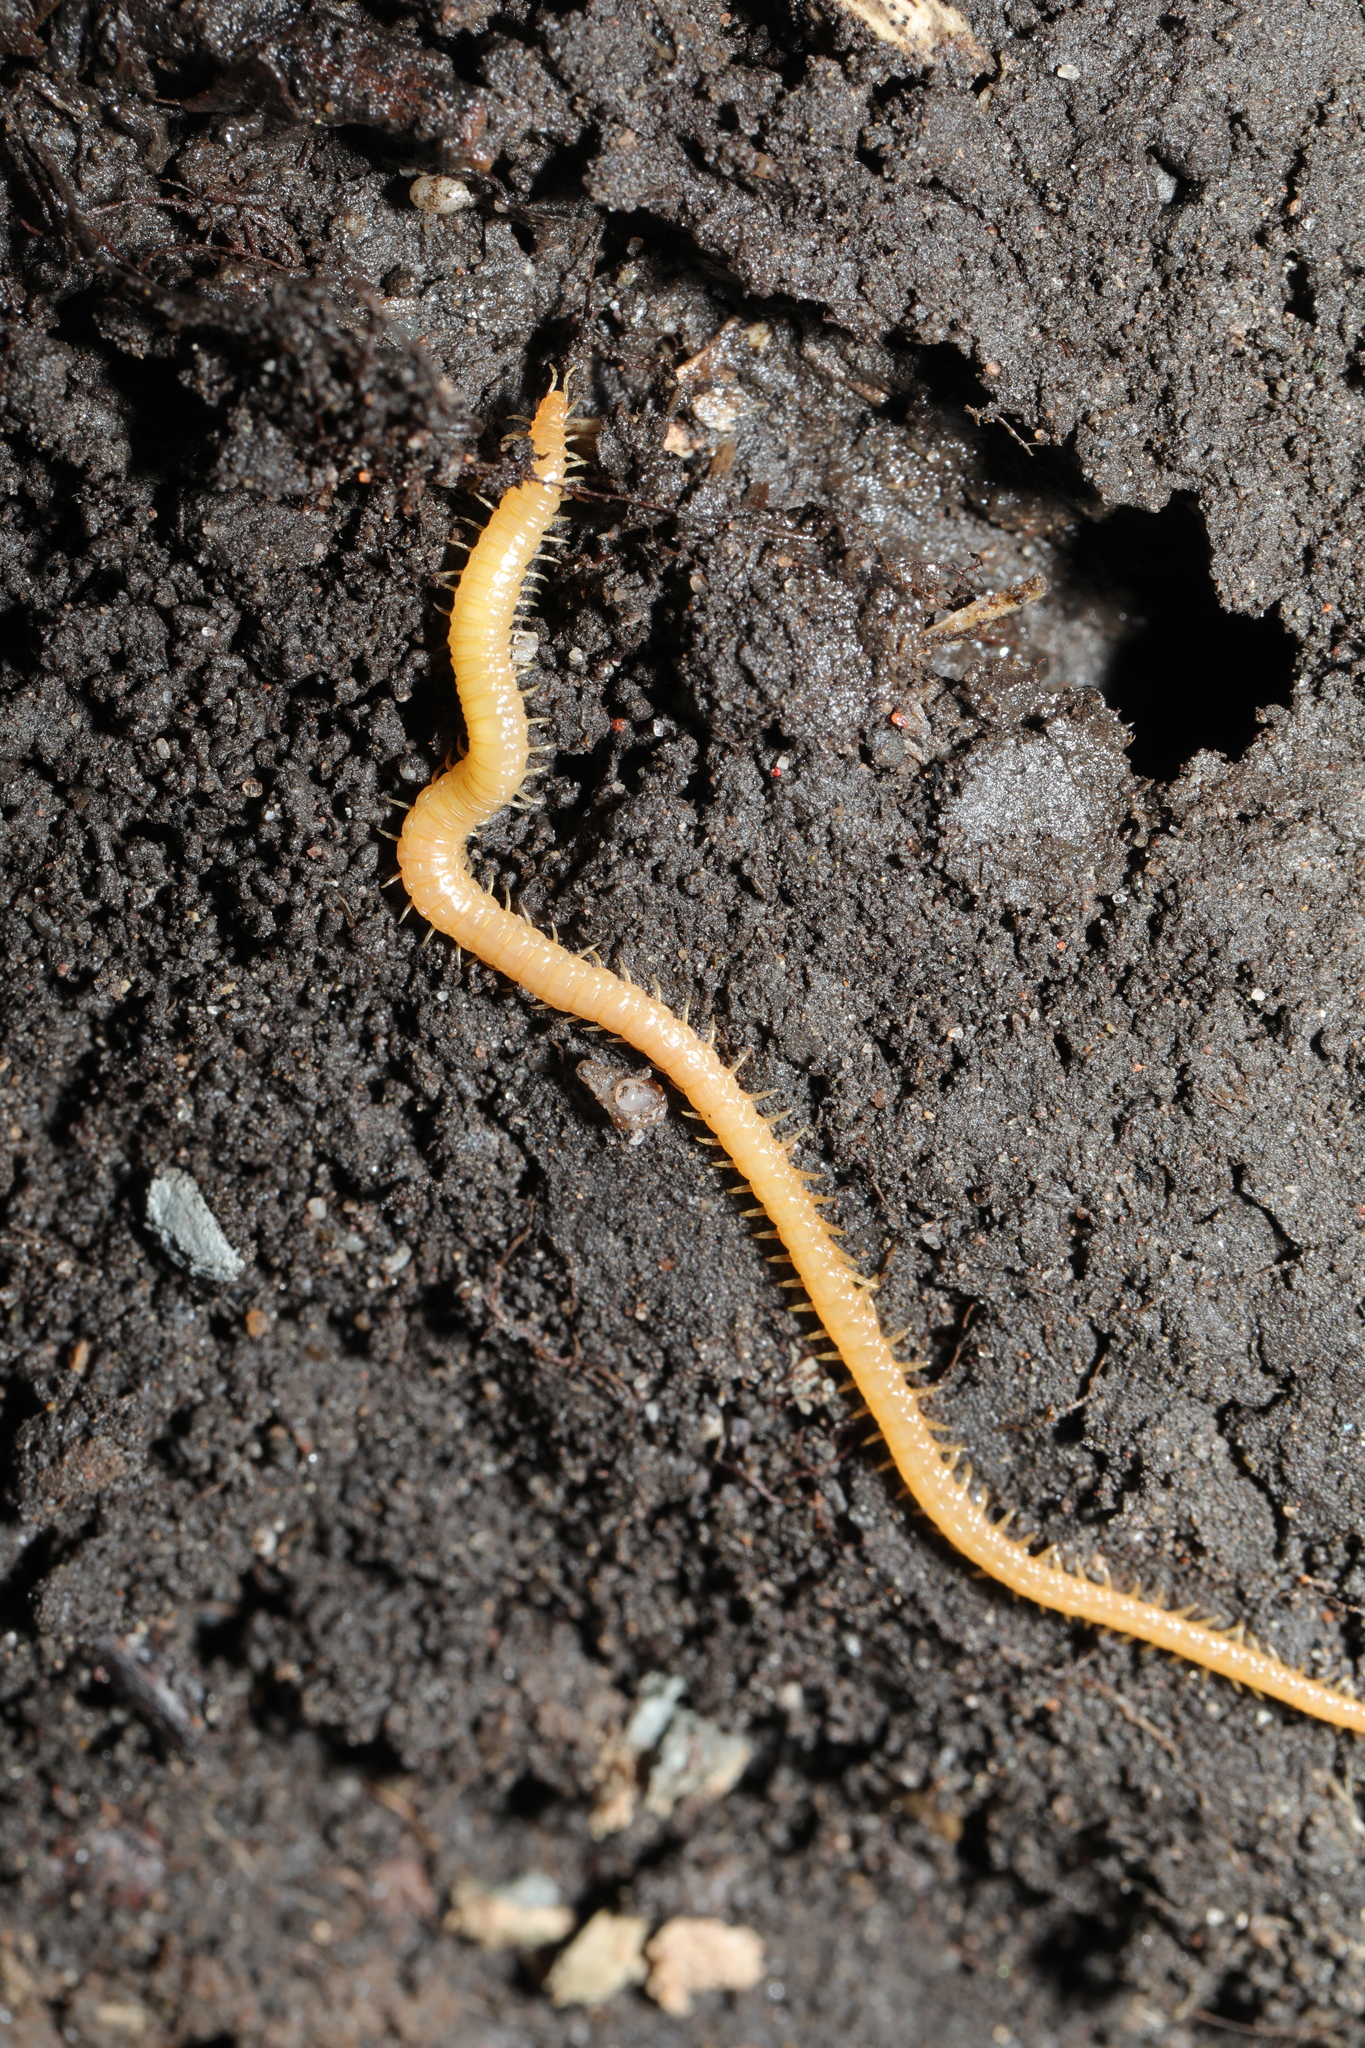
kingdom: Animalia
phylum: Arthropoda
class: Chilopoda
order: Geophilomorpha
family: Himantariidae
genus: Stigmatogaster
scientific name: Stigmatogaster subterranea
